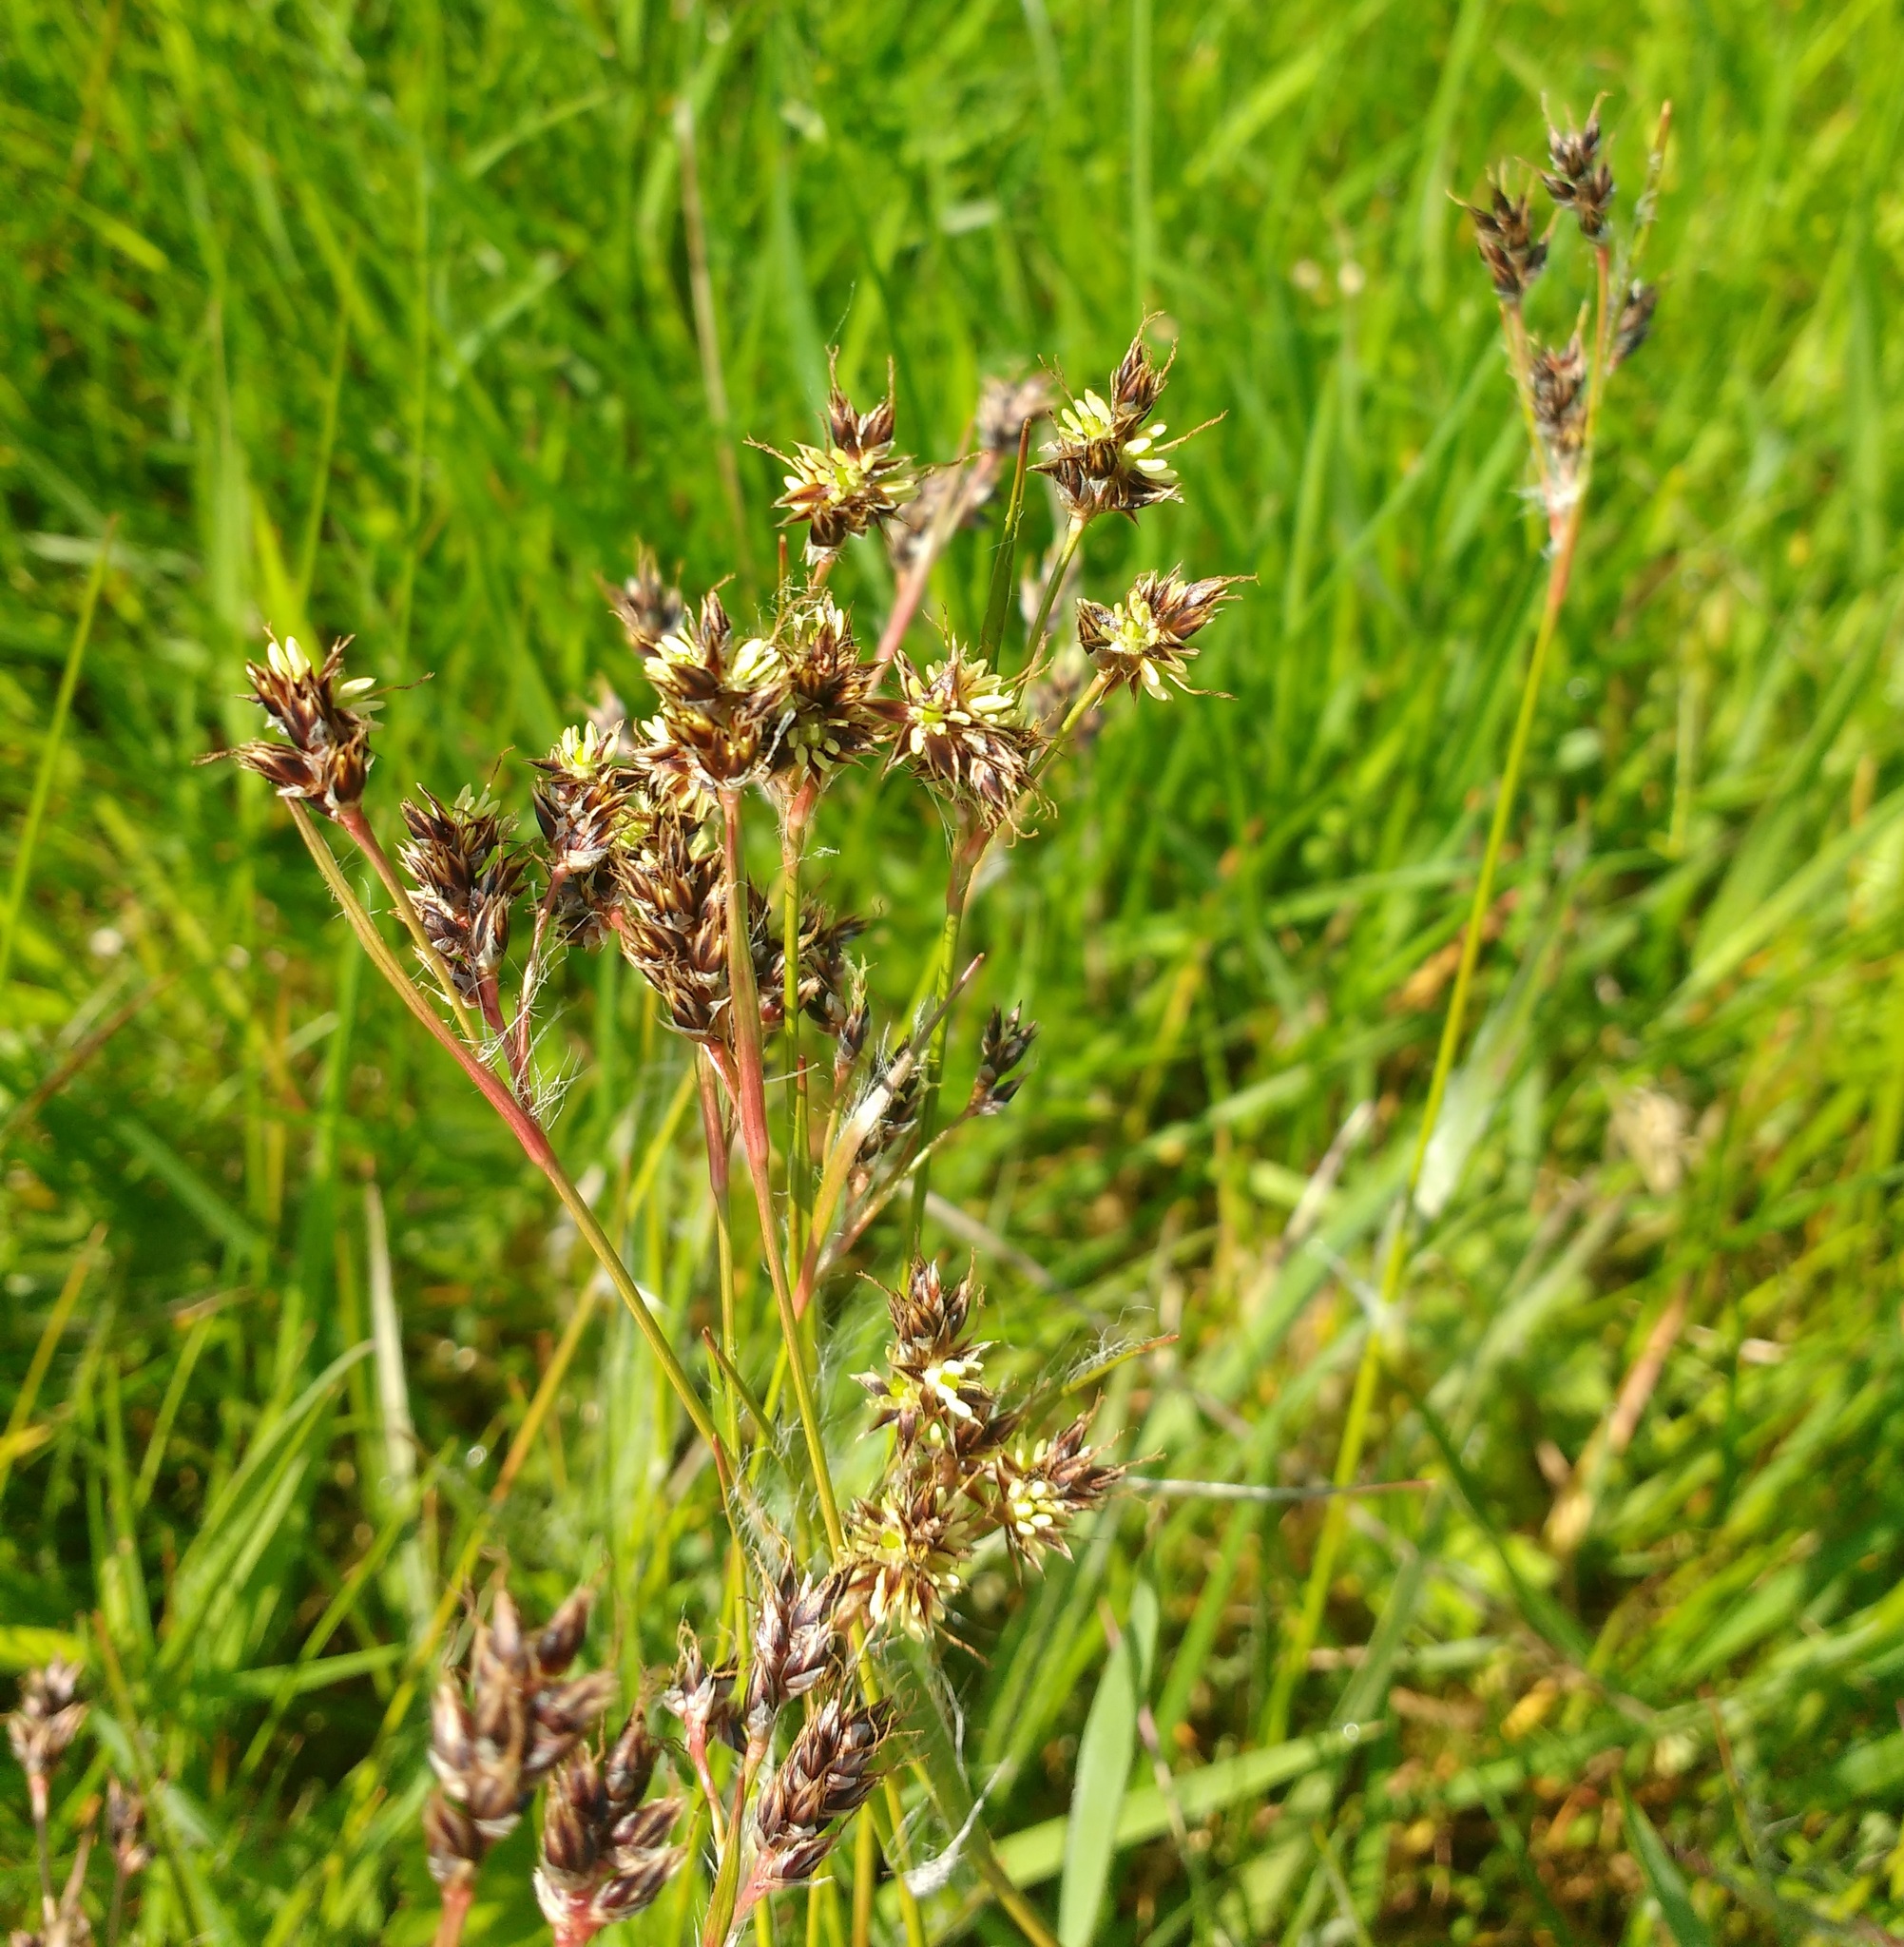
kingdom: Plantae
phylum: Tracheophyta
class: Liliopsida
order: Poales
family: Juncaceae
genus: Luzula
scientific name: Luzula campestris
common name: Field wood-rush
